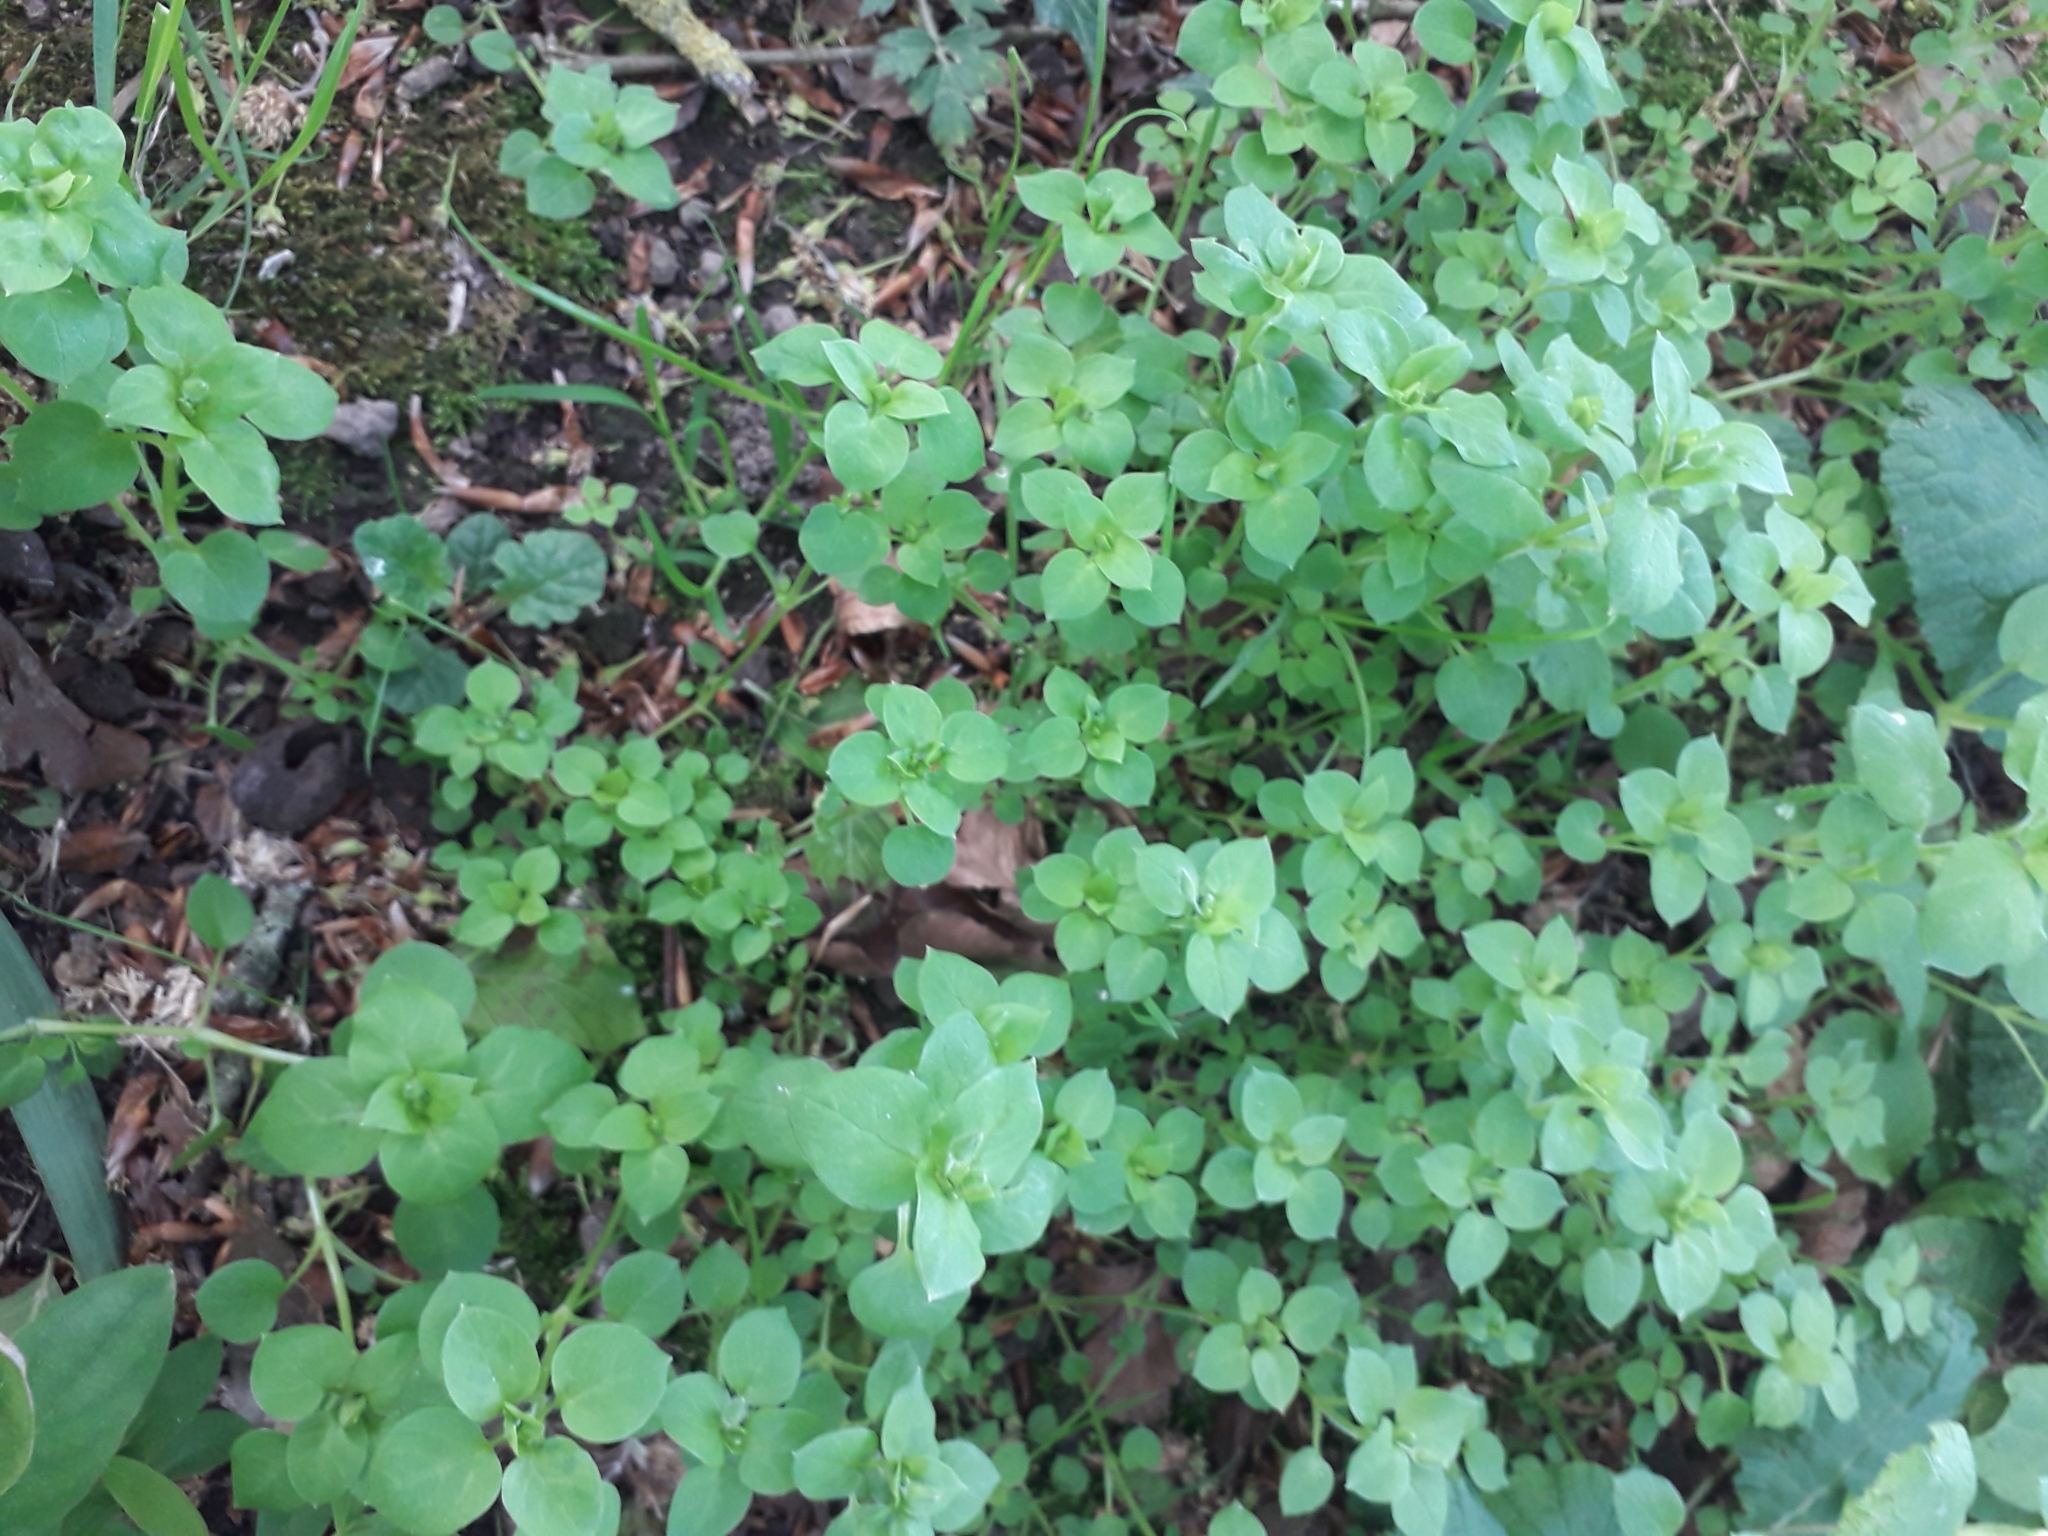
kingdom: Plantae
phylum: Tracheophyta
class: Magnoliopsida
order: Caryophyllales
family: Caryophyllaceae
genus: Stellaria
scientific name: Stellaria media
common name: Common chickweed
